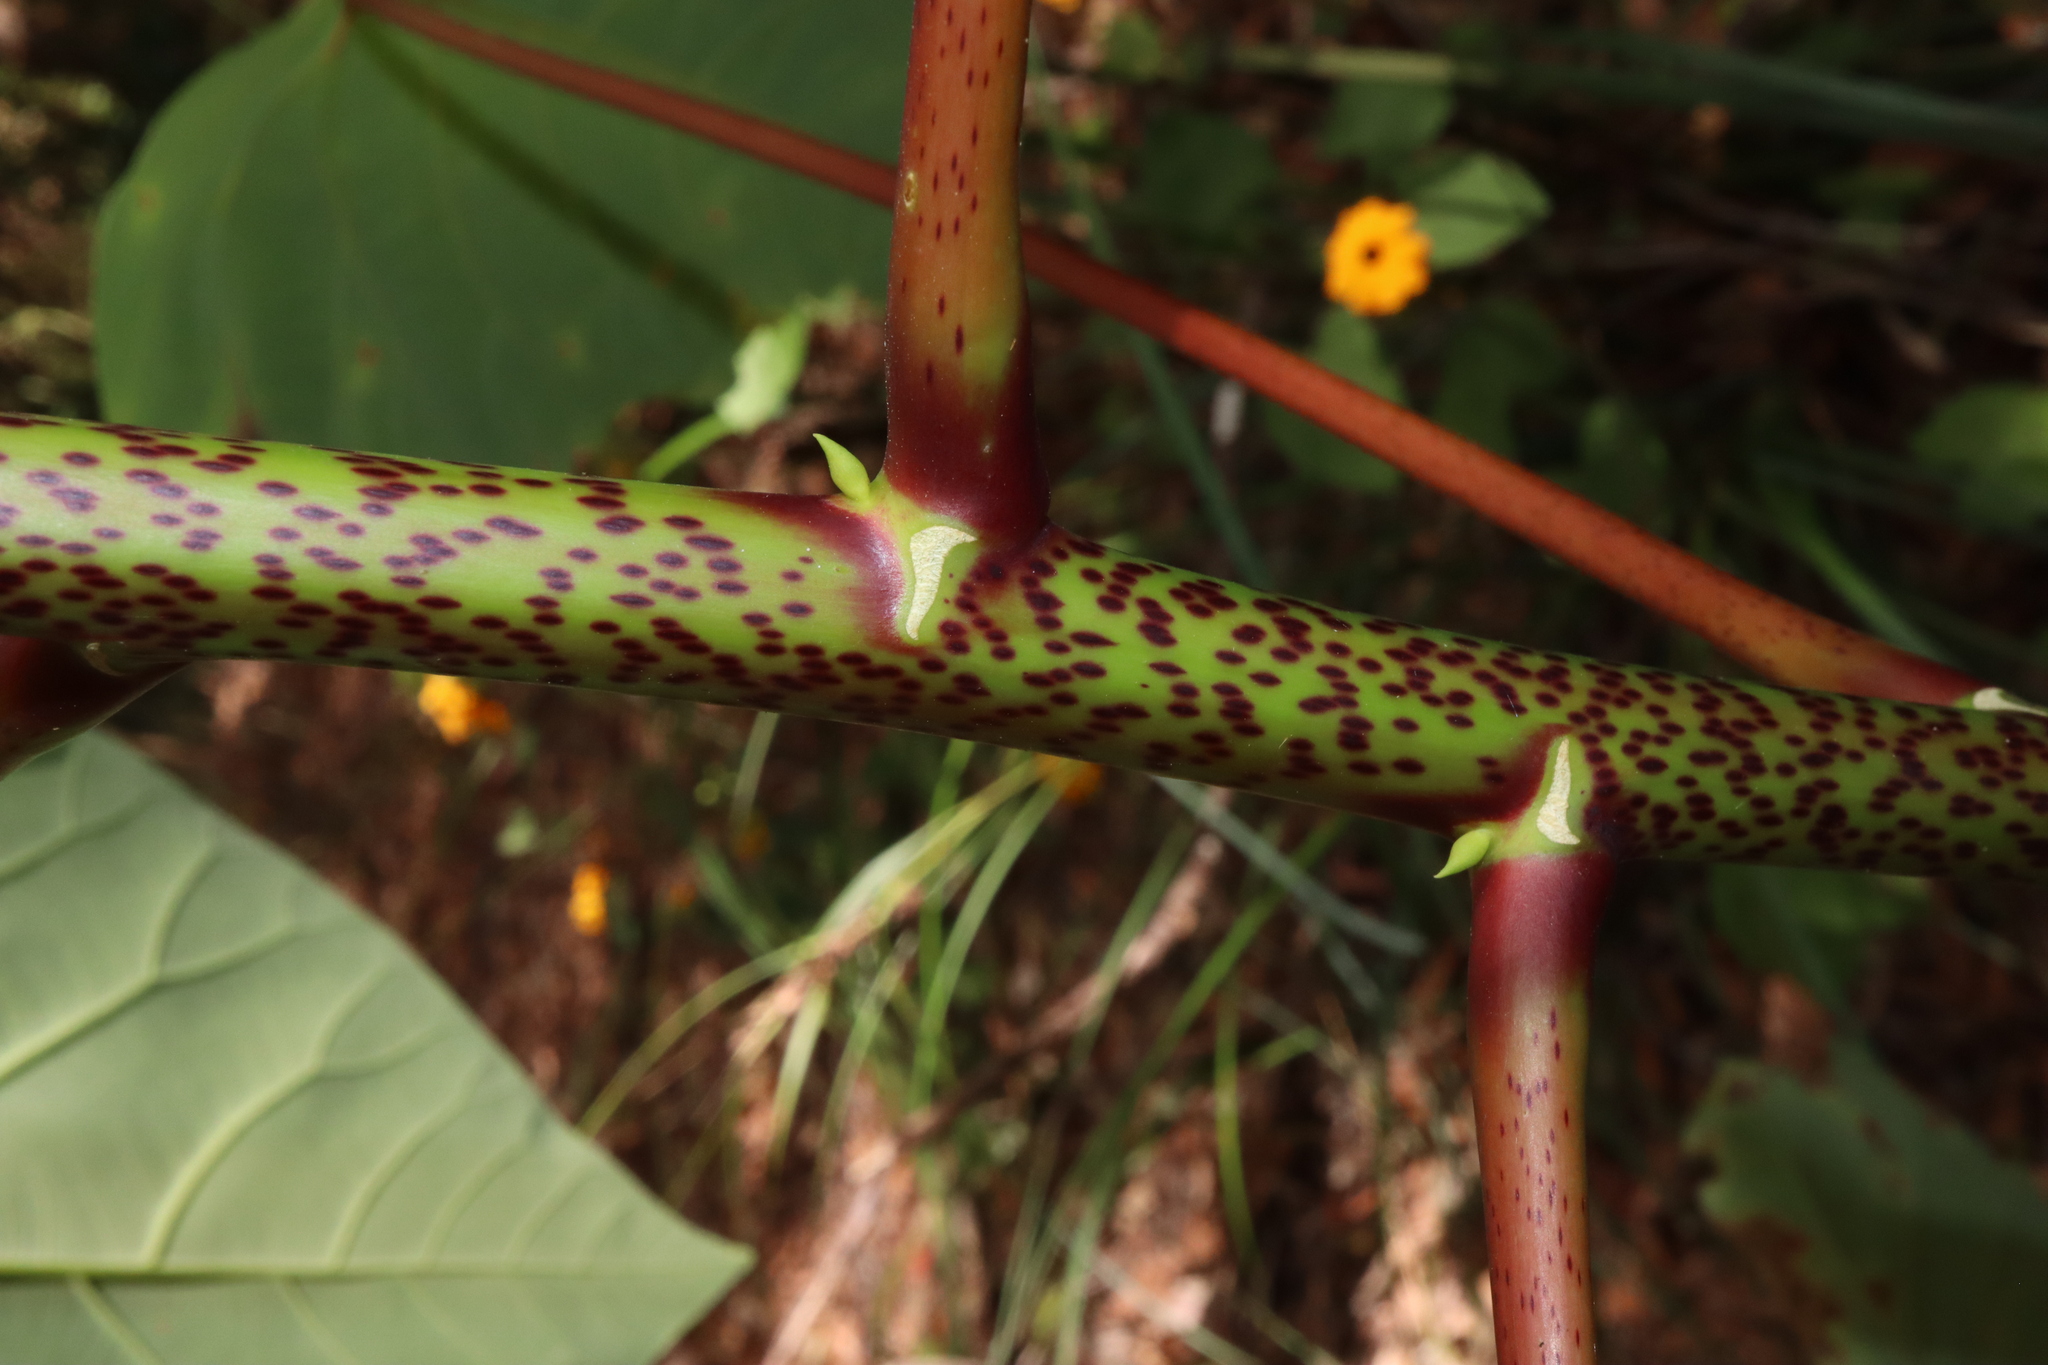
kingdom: Plantae
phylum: Tracheophyta
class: Magnoliopsida
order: Malpighiales
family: Euphorbiaceae
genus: Homalanthus
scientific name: Homalanthus novoguineensis
